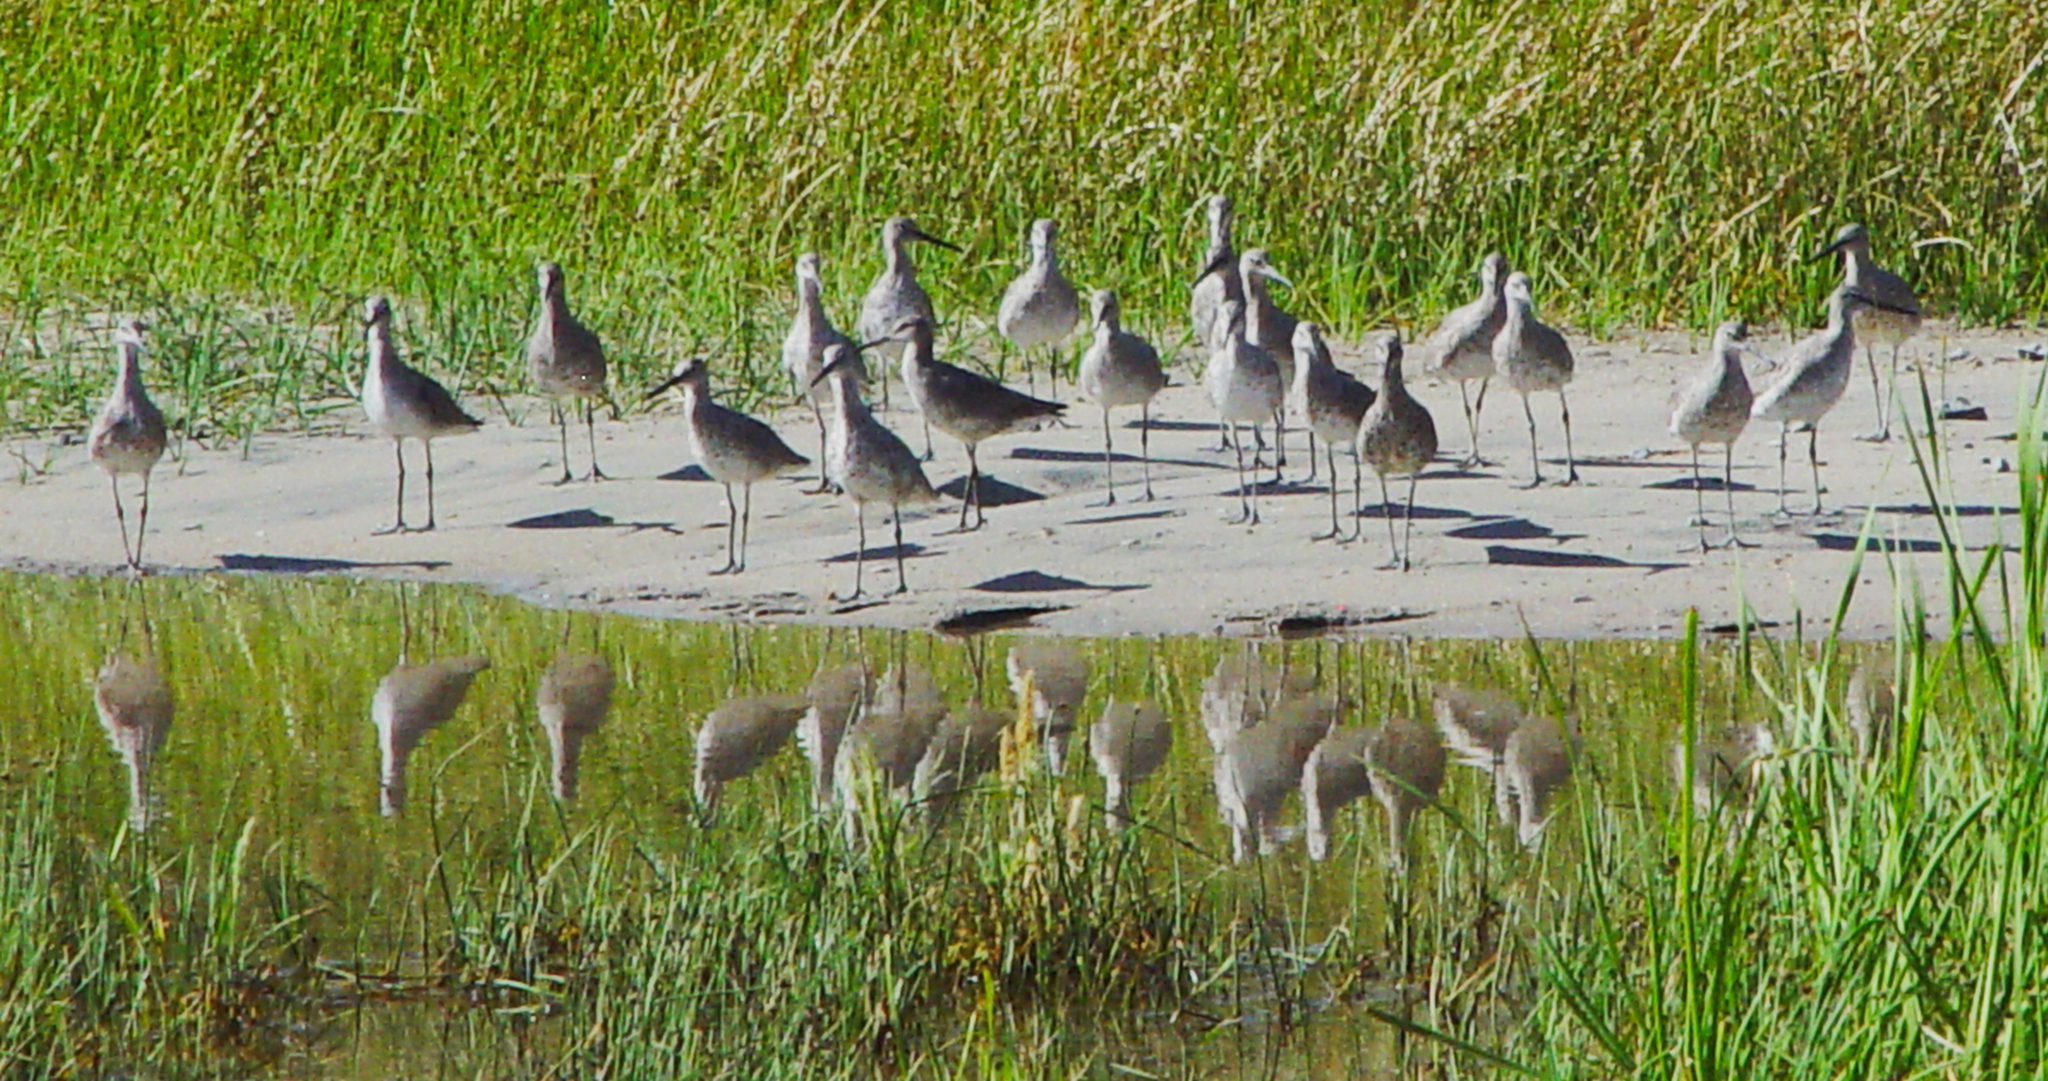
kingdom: Animalia
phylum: Chordata
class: Aves
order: Charadriiformes
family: Scolopacidae
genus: Tringa
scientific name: Tringa semipalmata
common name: Willet
